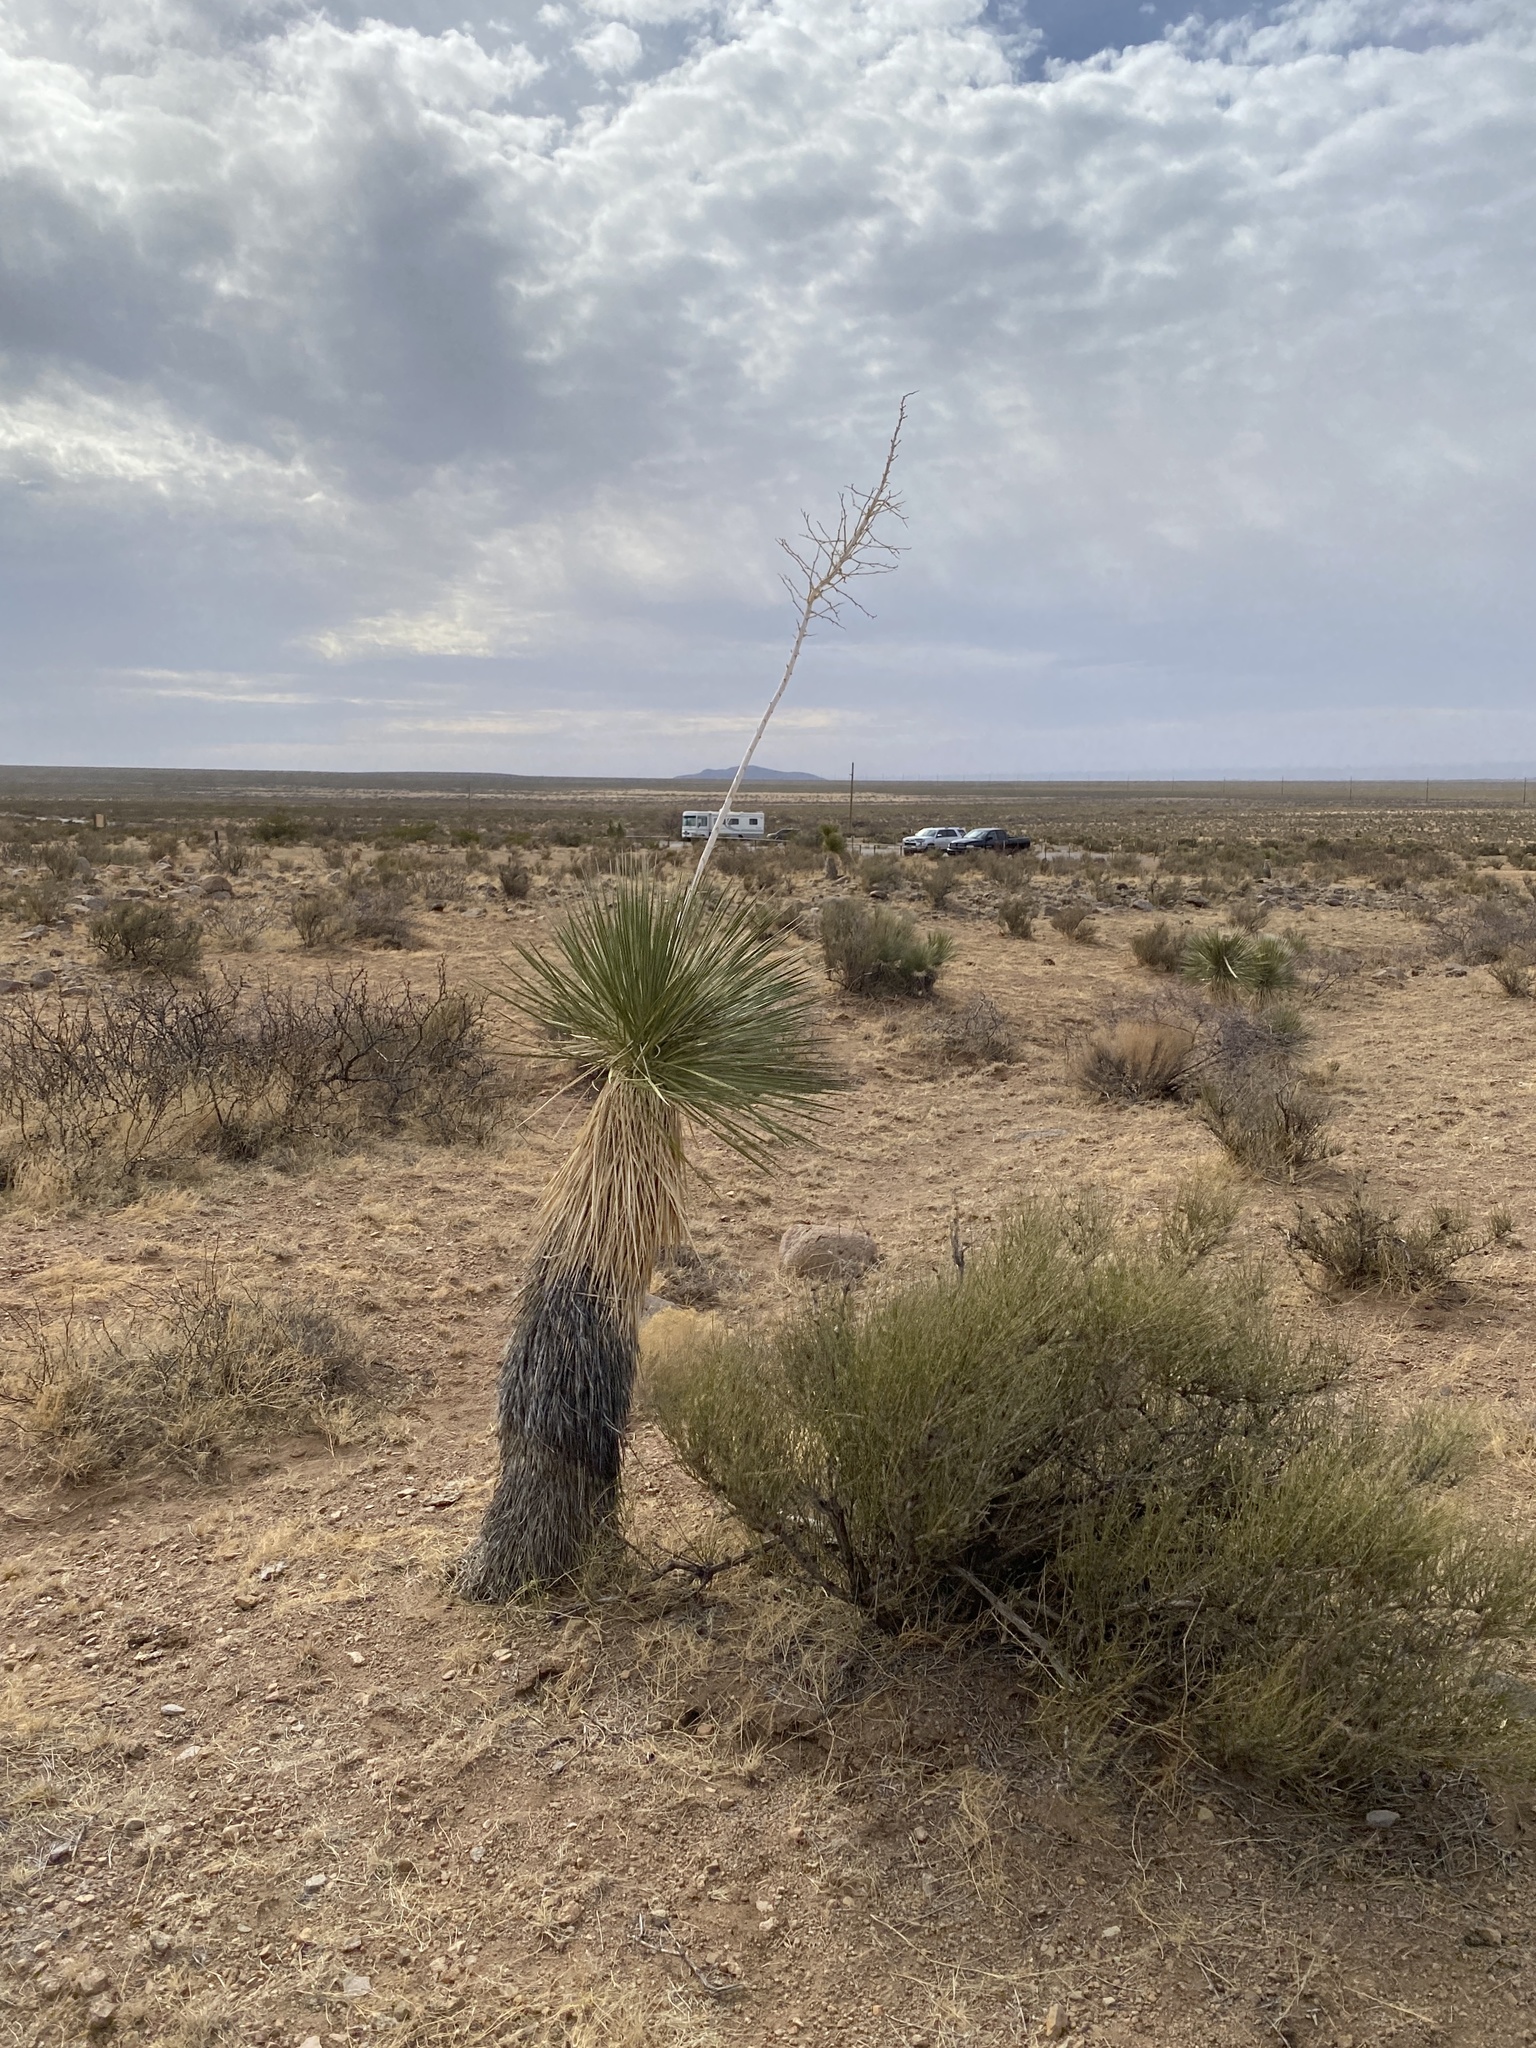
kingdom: Plantae
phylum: Tracheophyta
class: Liliopsida
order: Asparagales
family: Asparagaceae
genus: Yucca
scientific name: Yucca elata
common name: Palmella
